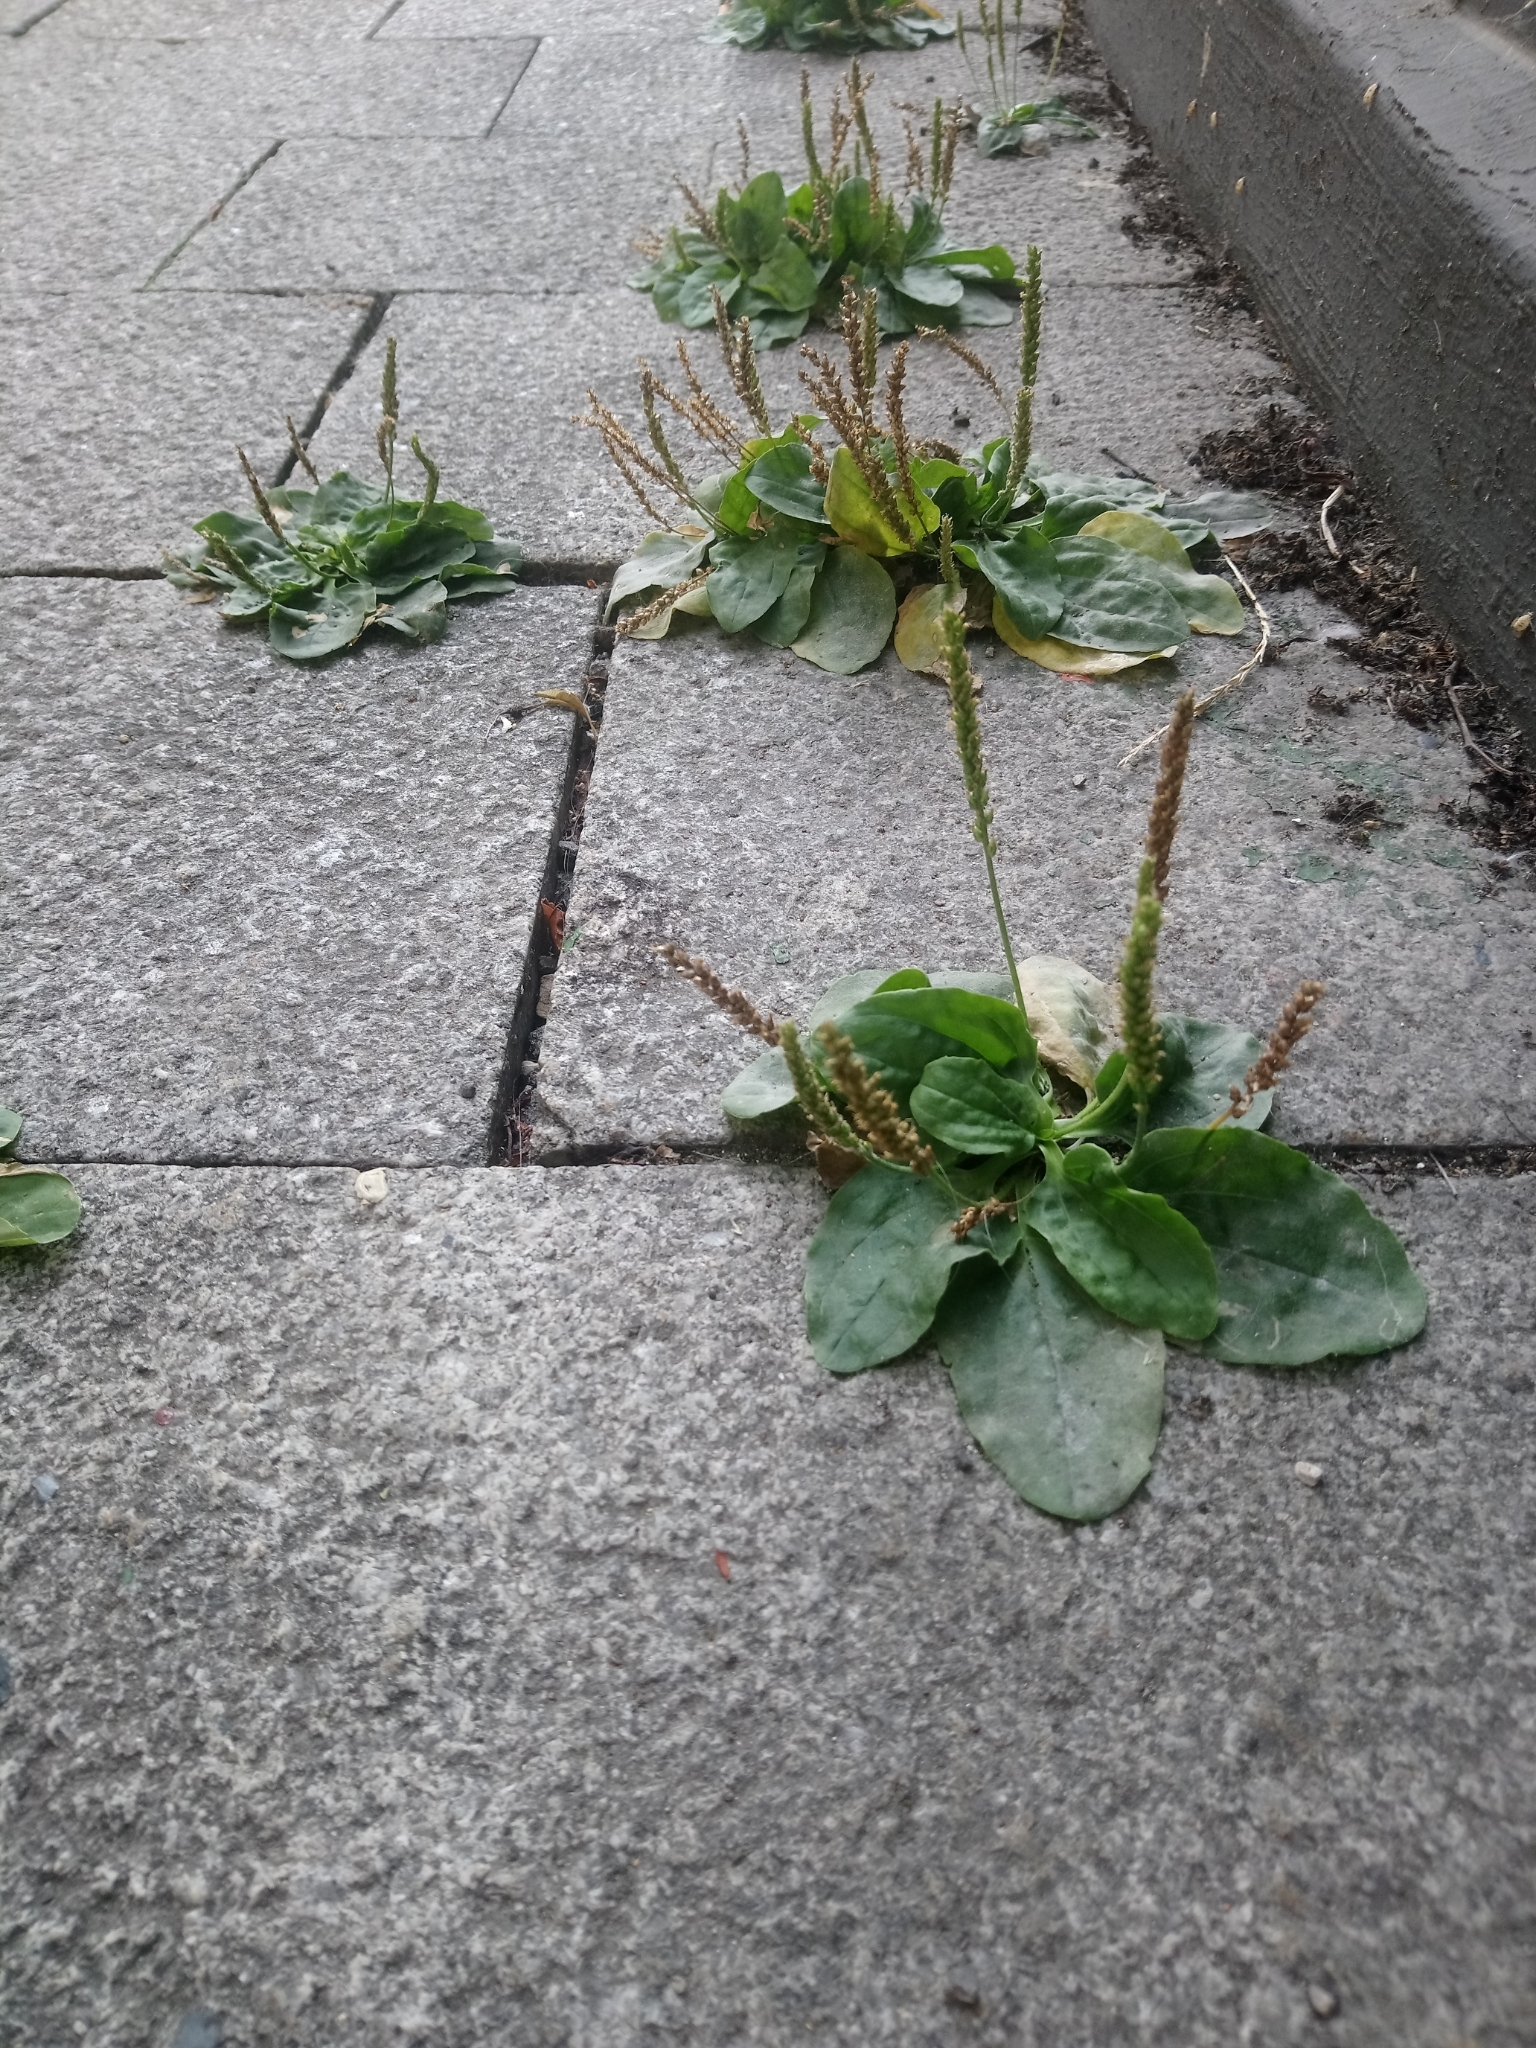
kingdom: Plantae
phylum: Tracheophyta
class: Magnoliopsida
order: Lamiales
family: Plantaginaceae
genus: Plantago
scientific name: Plantago major
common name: Common plantain
